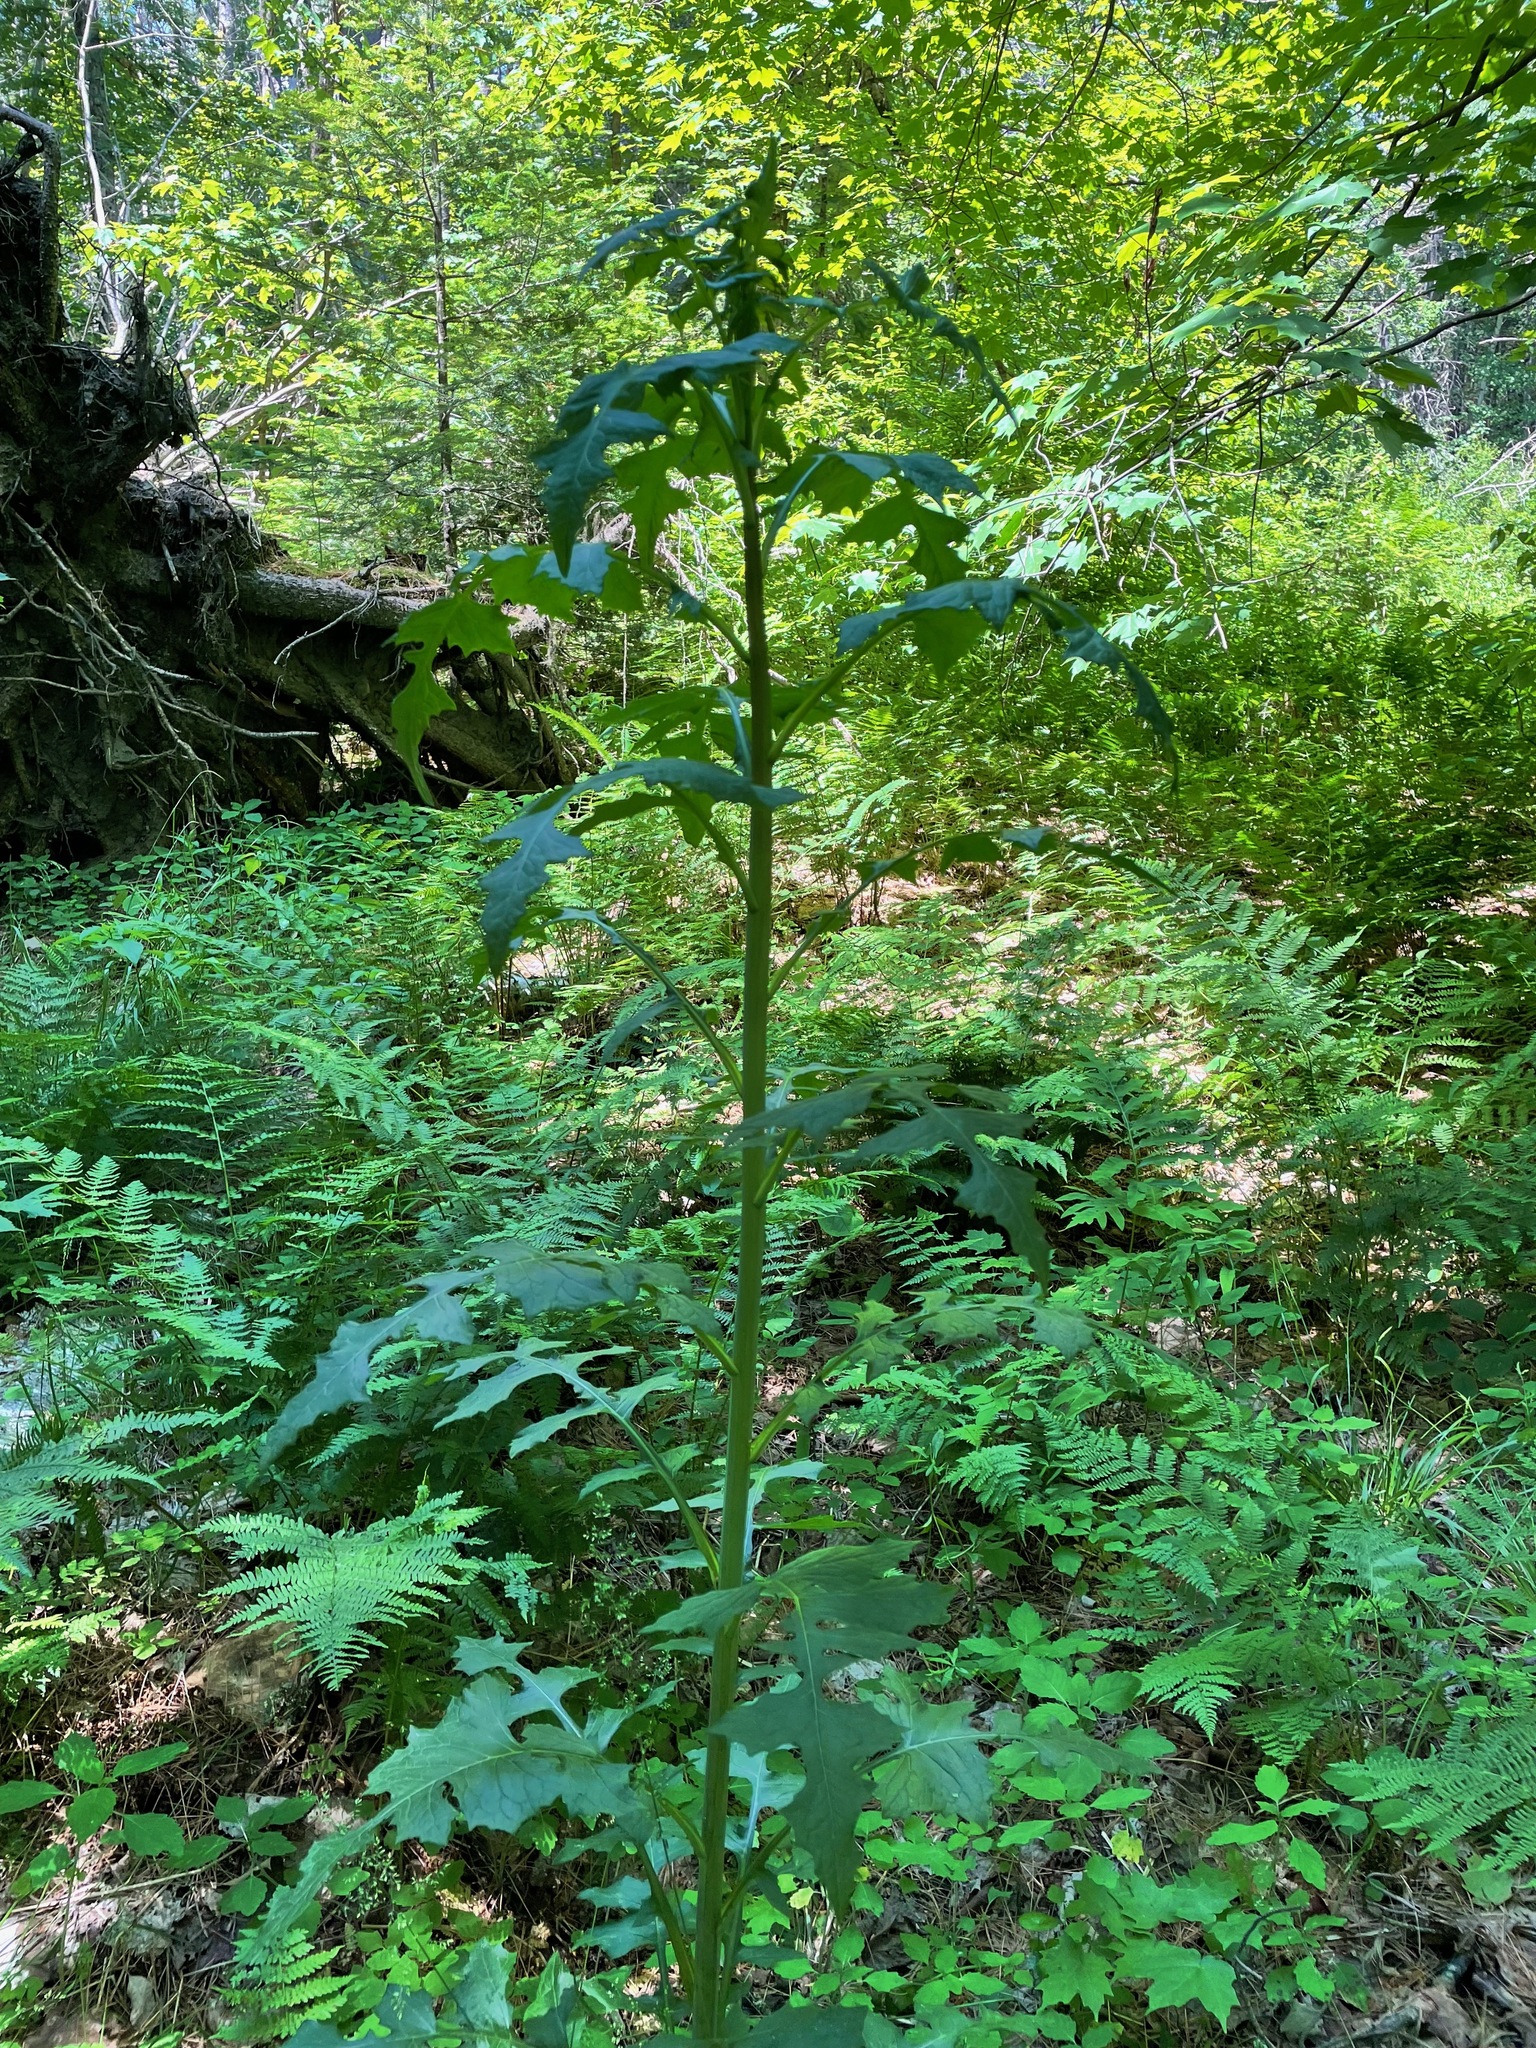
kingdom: Plantae
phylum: Tracheophyta
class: Magnoliopsida
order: Asterales
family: Asteraceae
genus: Lactuca
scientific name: Lactuca biennis
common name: Blue wood lettuce
